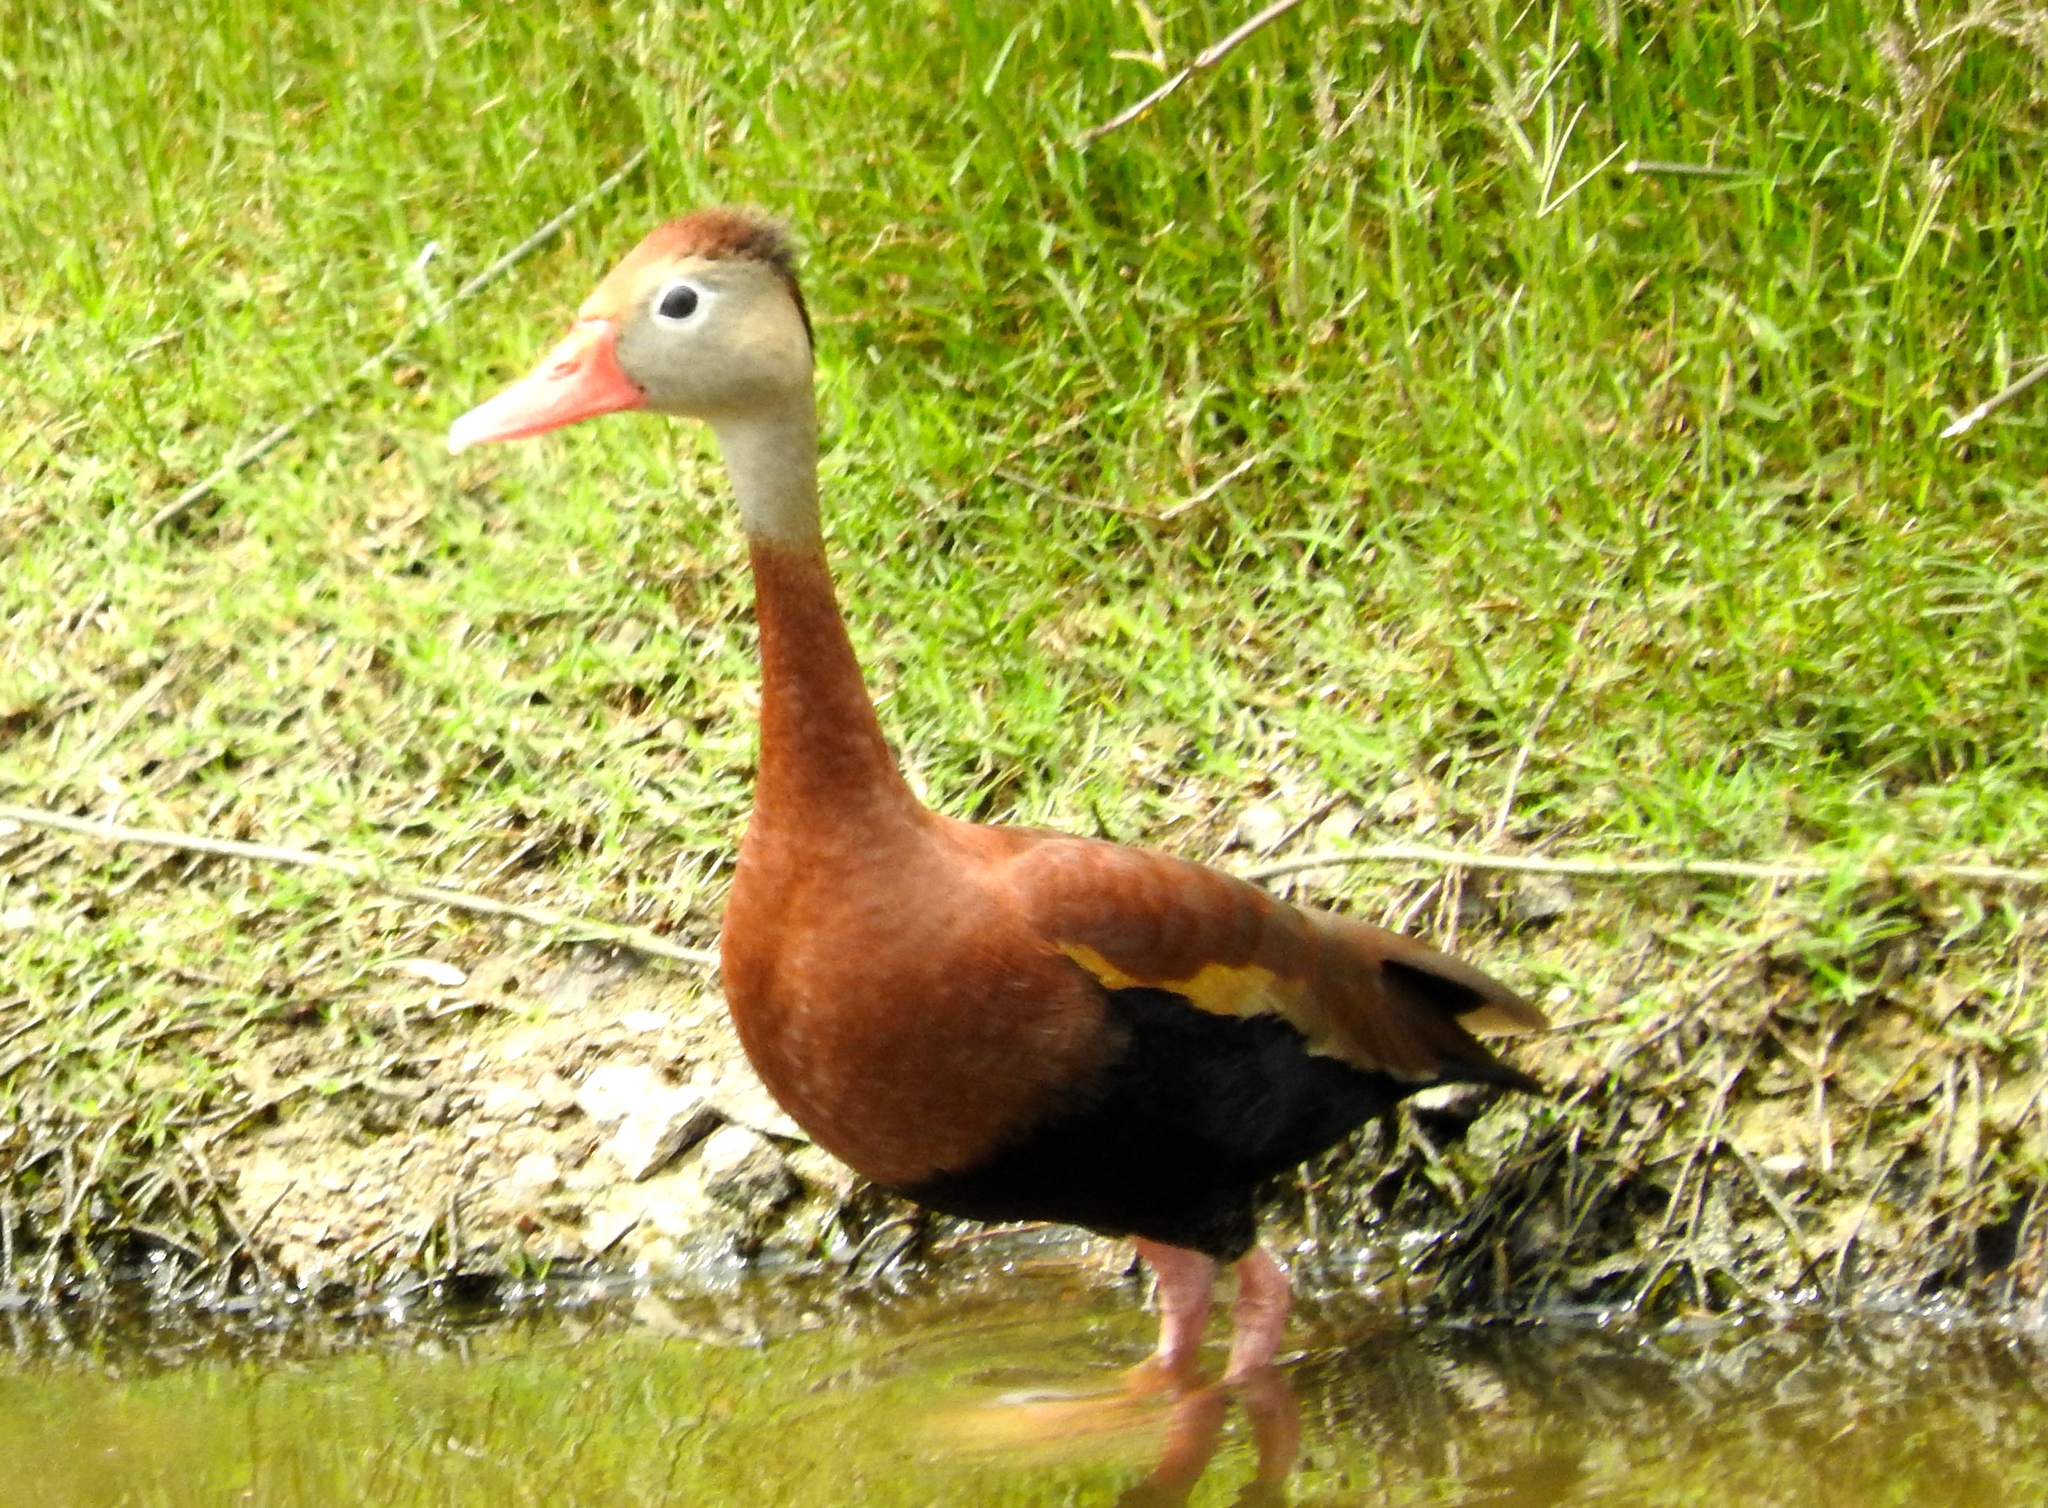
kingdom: Animalia
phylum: Chordata
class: Aves
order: Anseriformes
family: Anatidae
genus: Dendrocygna
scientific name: Dendrocygna autumnalis
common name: Black-bellied whistling duck
